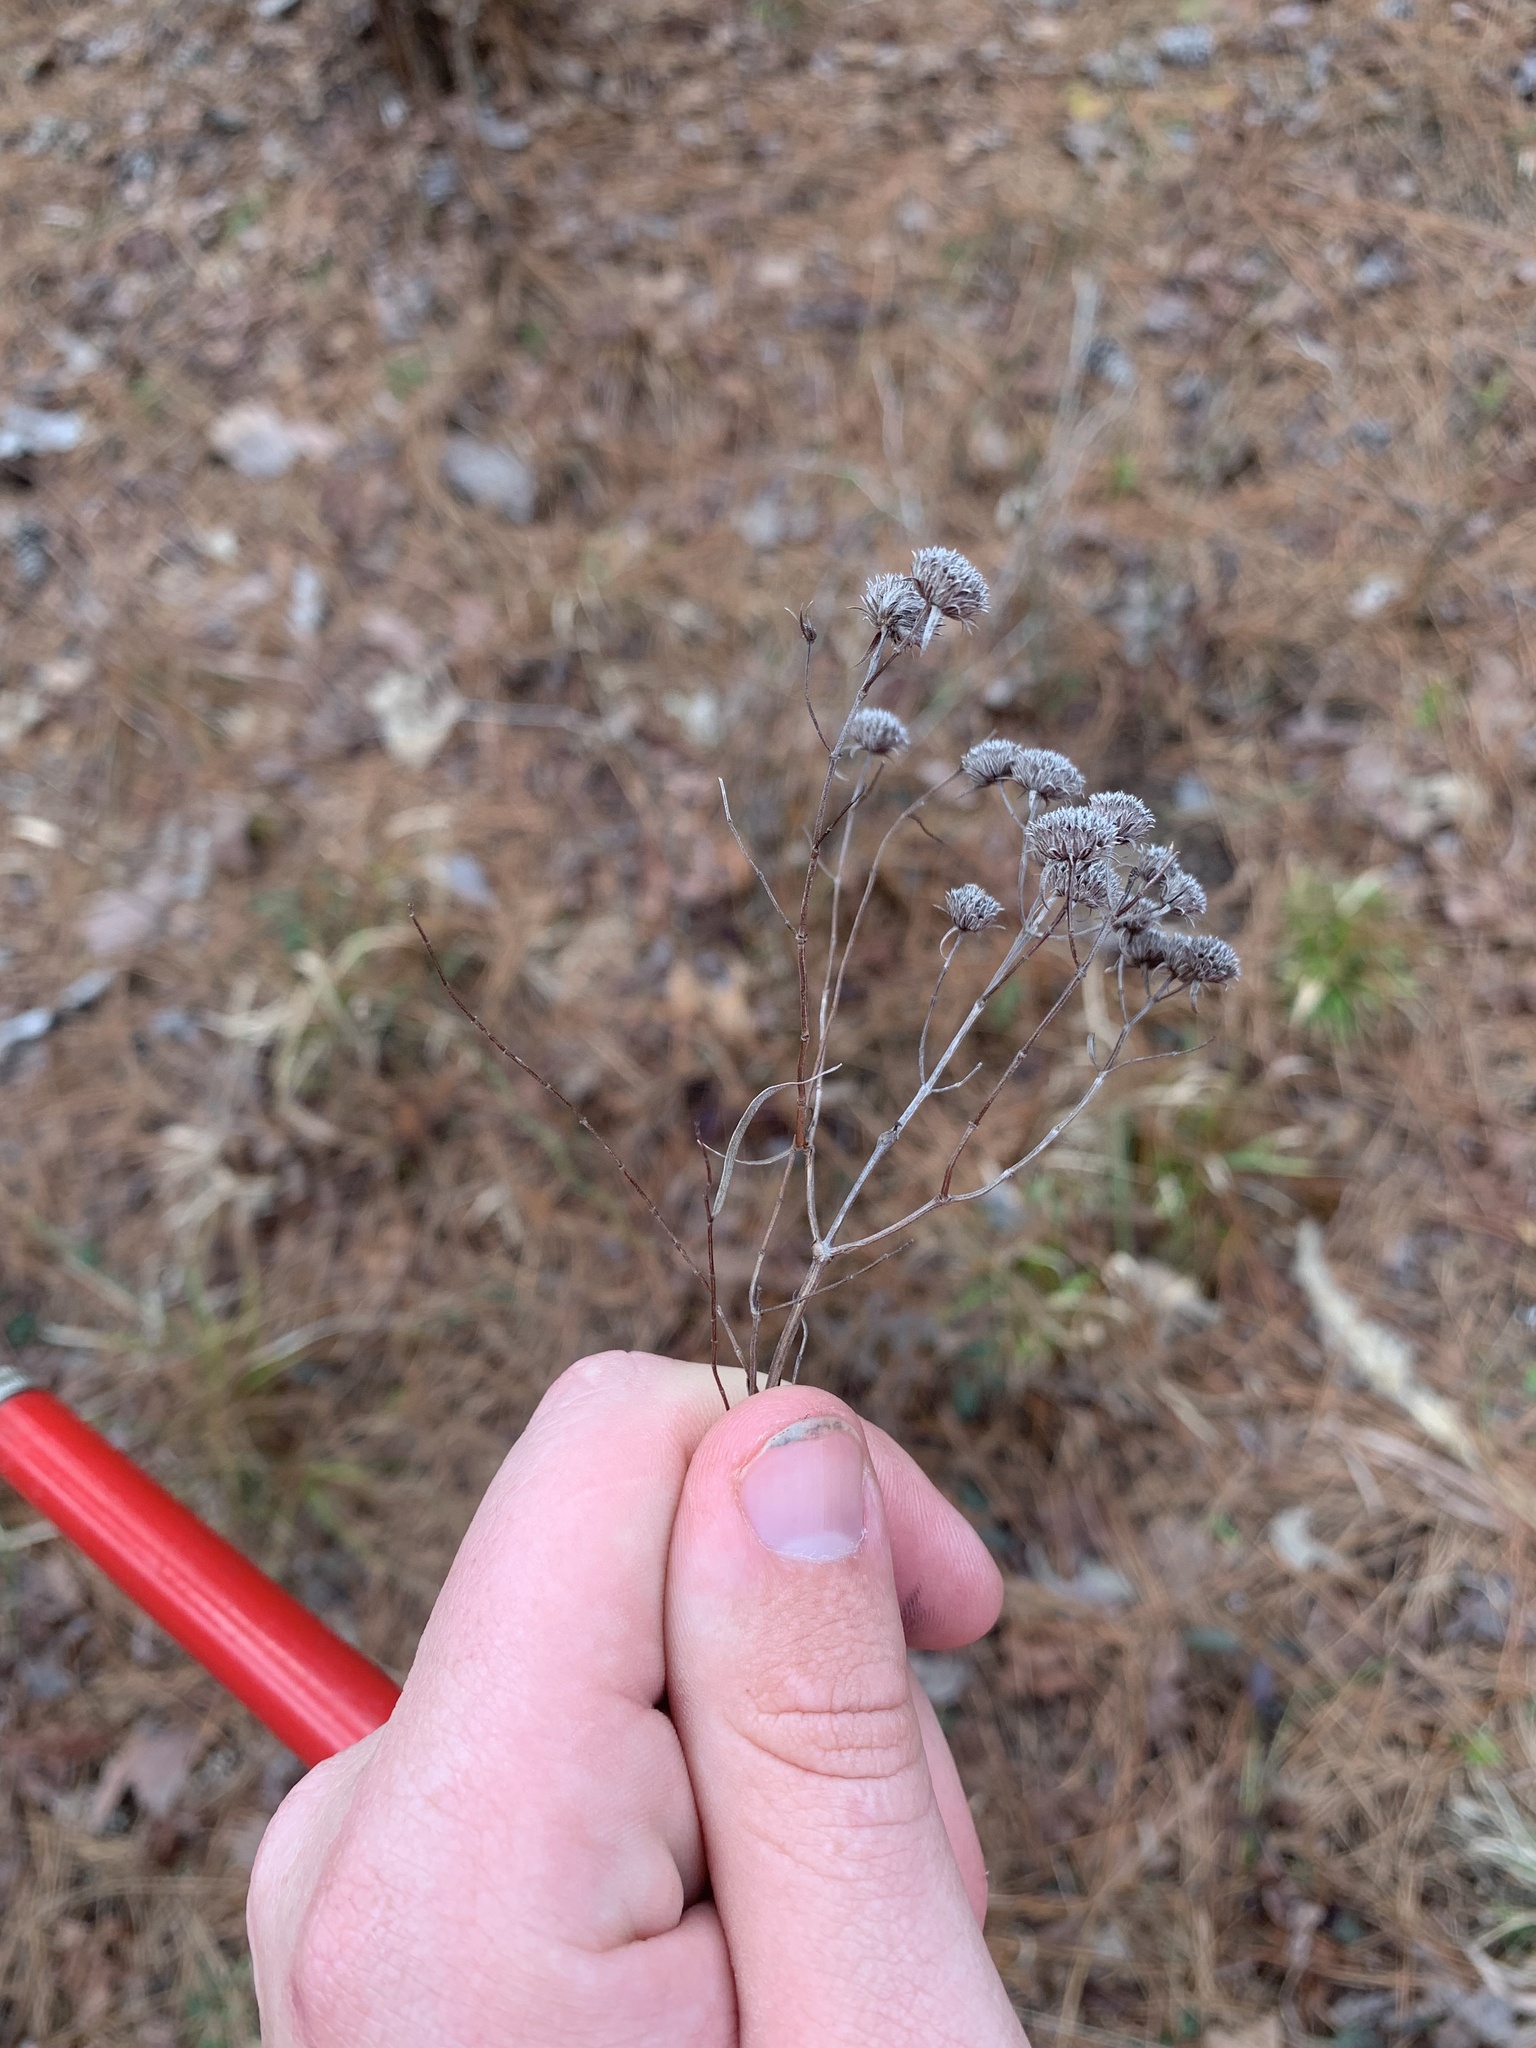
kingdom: Plantae
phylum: Tracheophyta
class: Magnoliopsida
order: Lamiales
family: Lamiaceae
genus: Pycnanthemum
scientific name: Pycnanthemum tenuifolium
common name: Narrow-leaf mountain-mint
